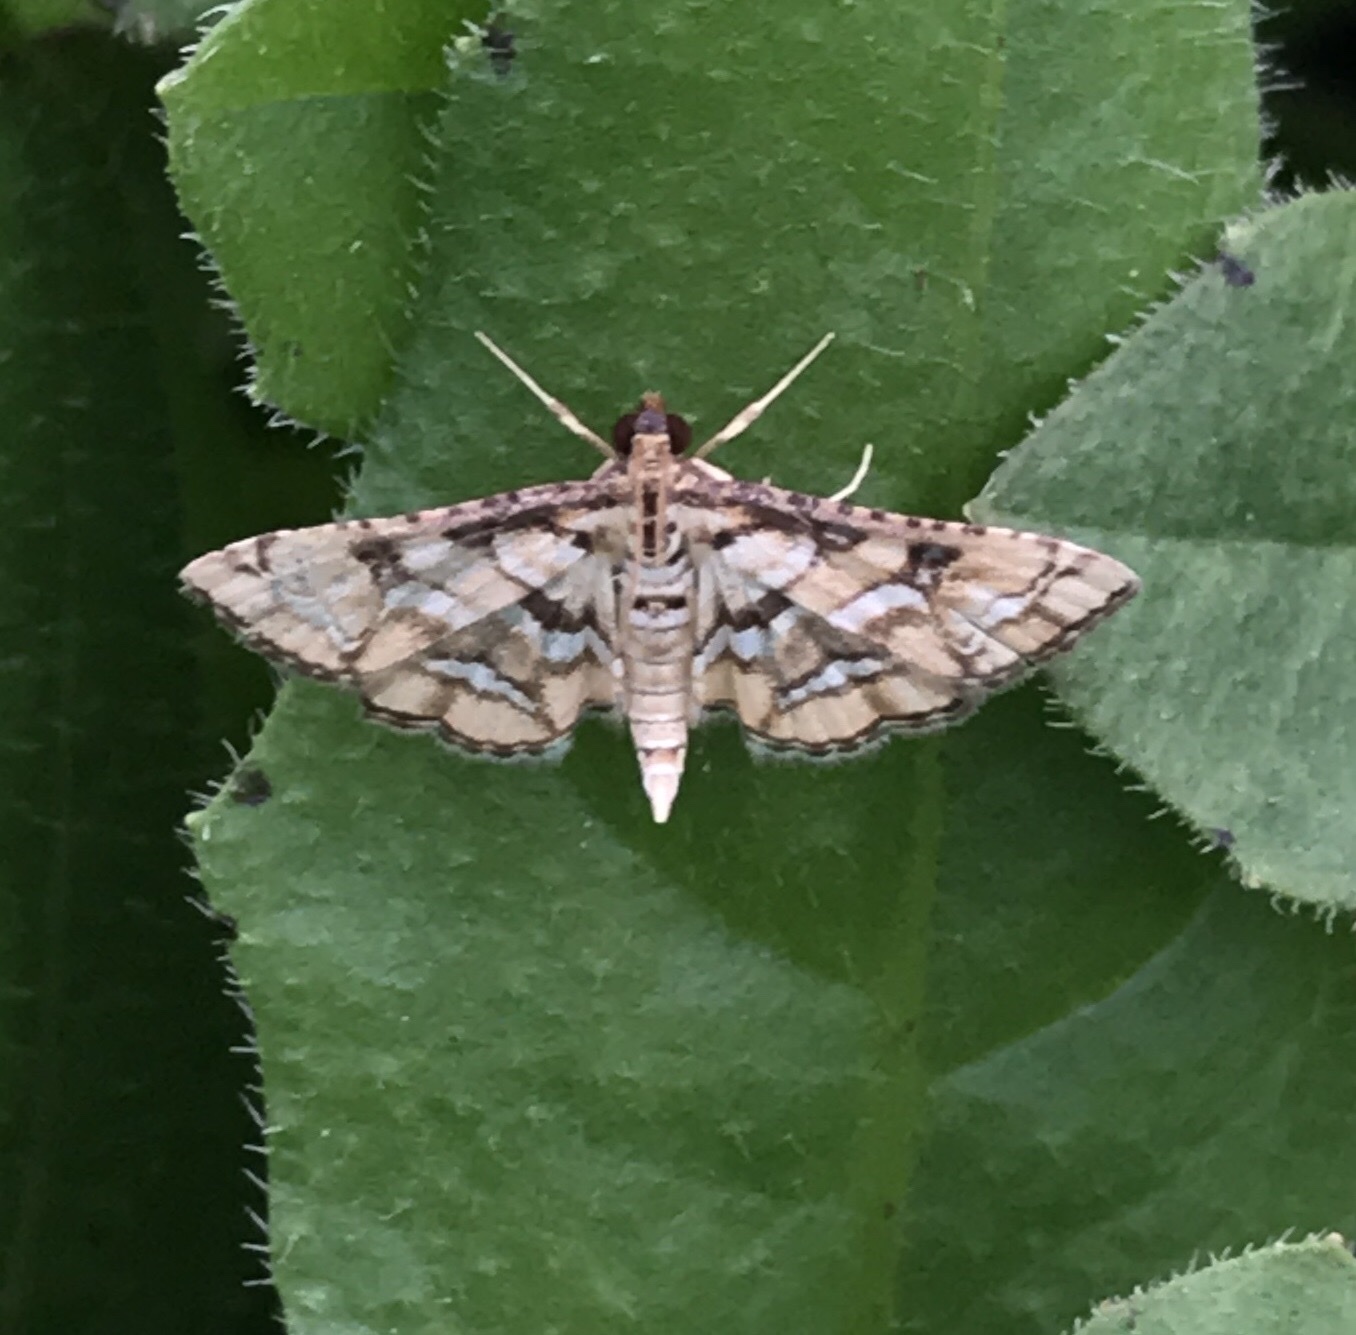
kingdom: Animalia
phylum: Arthropoda
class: Insecta
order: Lepidoptera
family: Crambidae
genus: Hileithia
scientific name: Hileithia magualis
